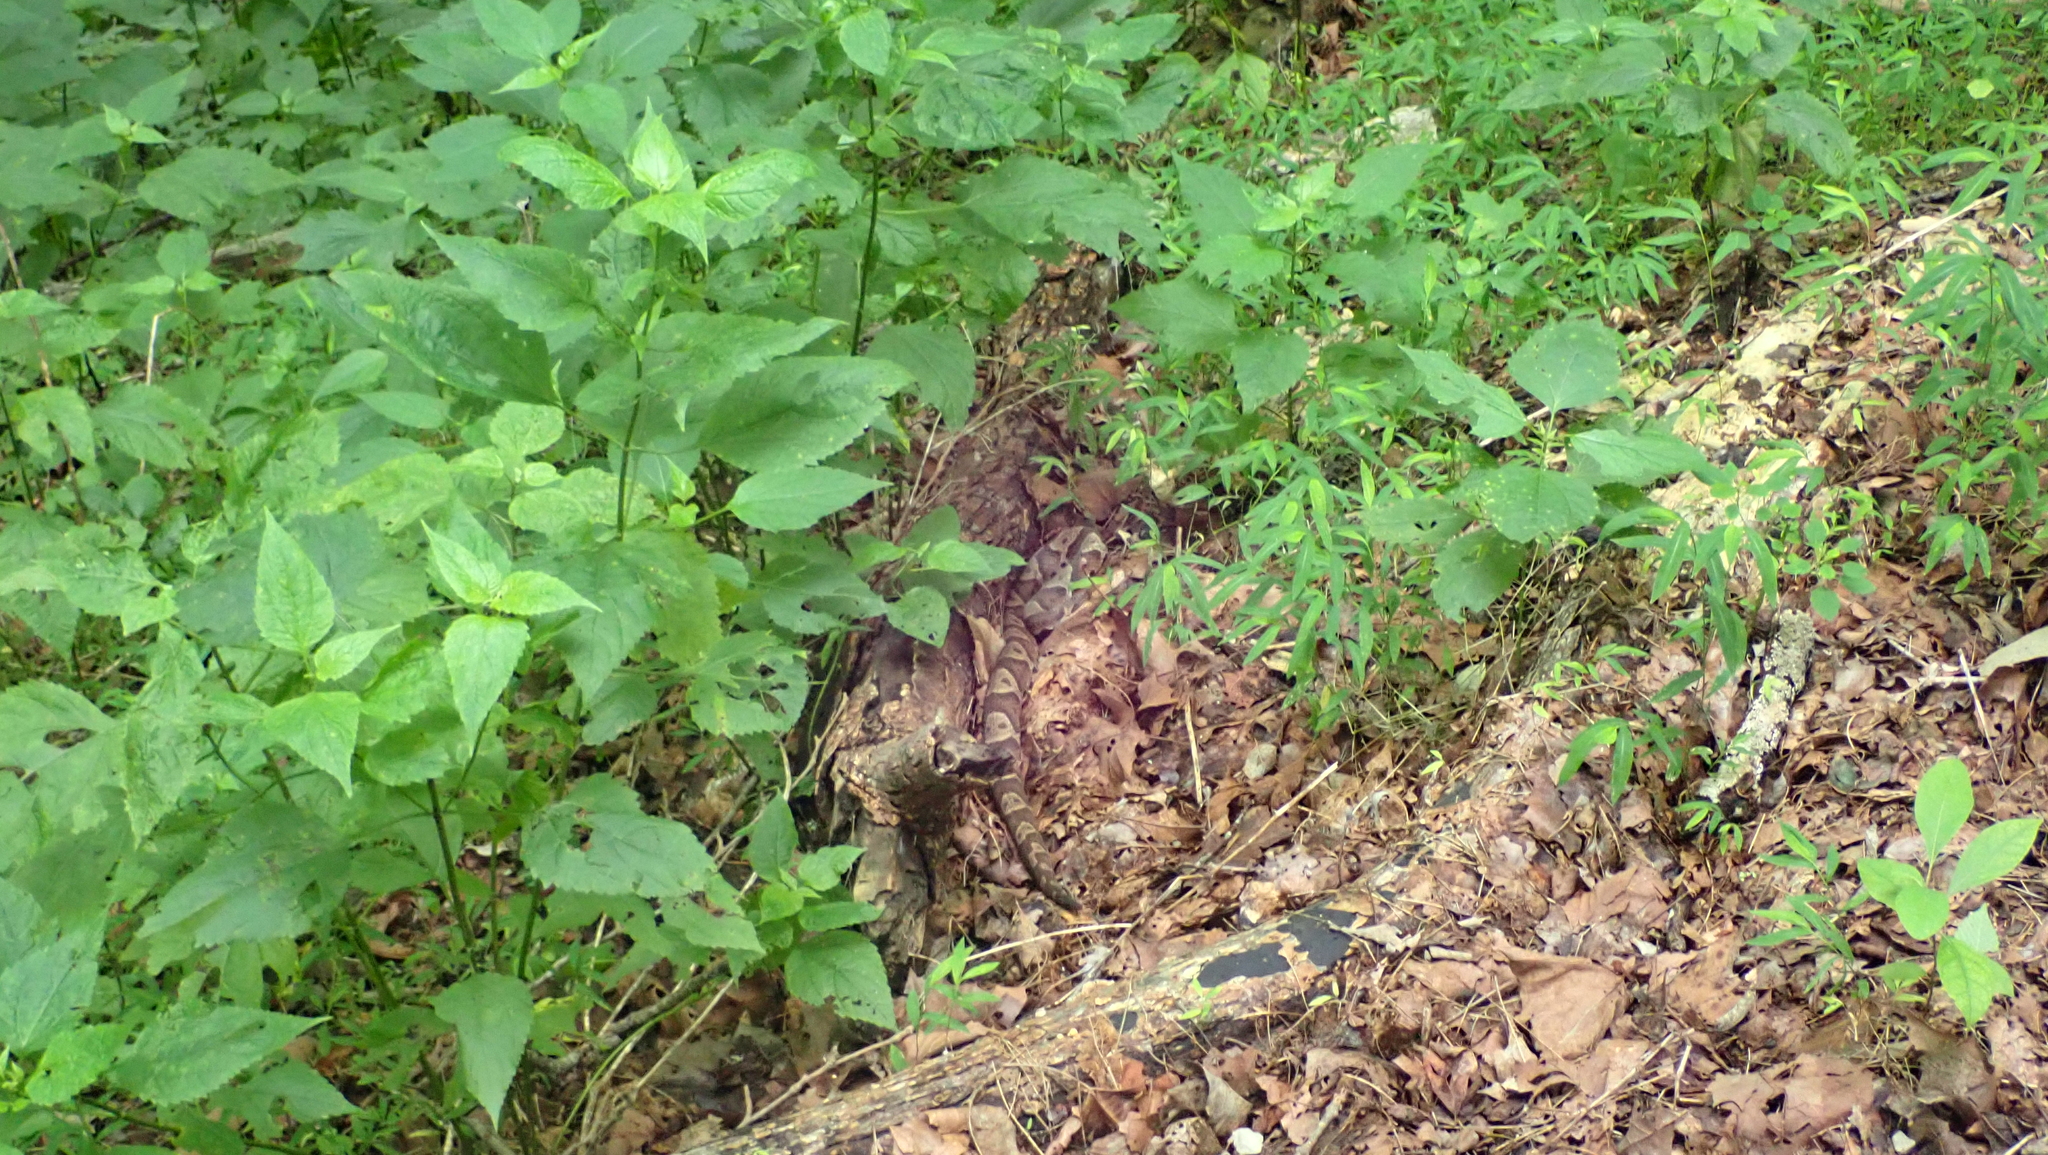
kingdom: Animalia
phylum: Chordata
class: Squamata
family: Viperidae
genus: Agkistrodon
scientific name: Agkistrodon contortrix
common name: Northern copperhead
